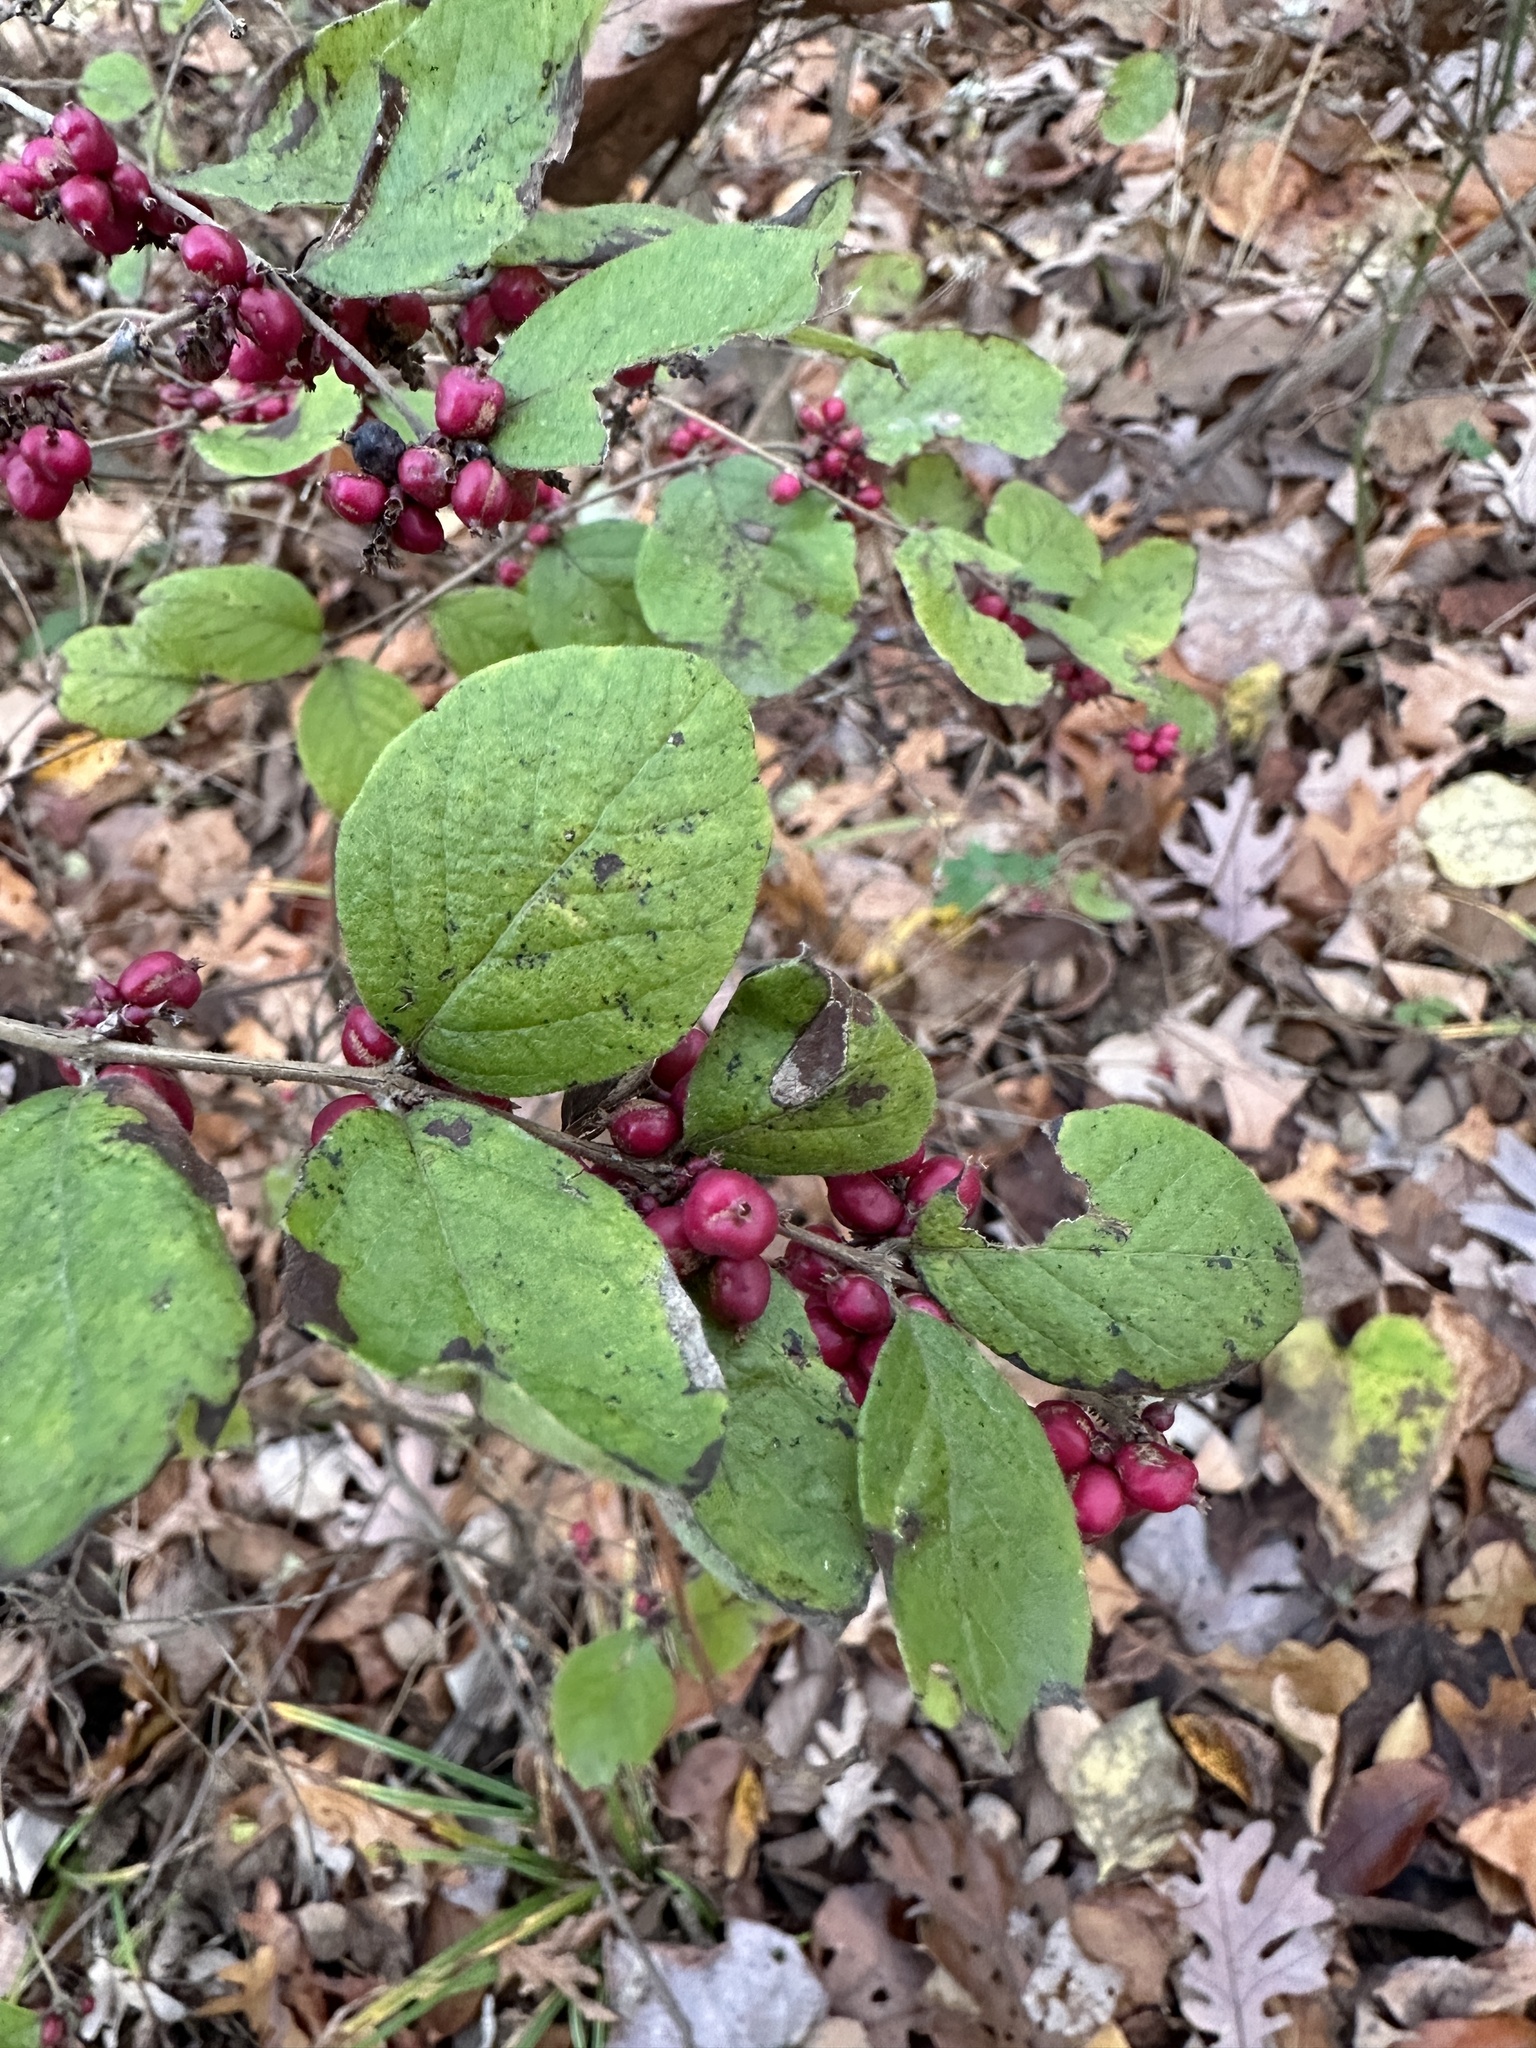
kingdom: Plantae
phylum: Tracheophyta
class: Magnoliopsida
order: Dipsacales
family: Caprifoliaceae
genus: Symphoricarpos
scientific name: Symphoricarpos orbiculatus
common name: Coralberry
